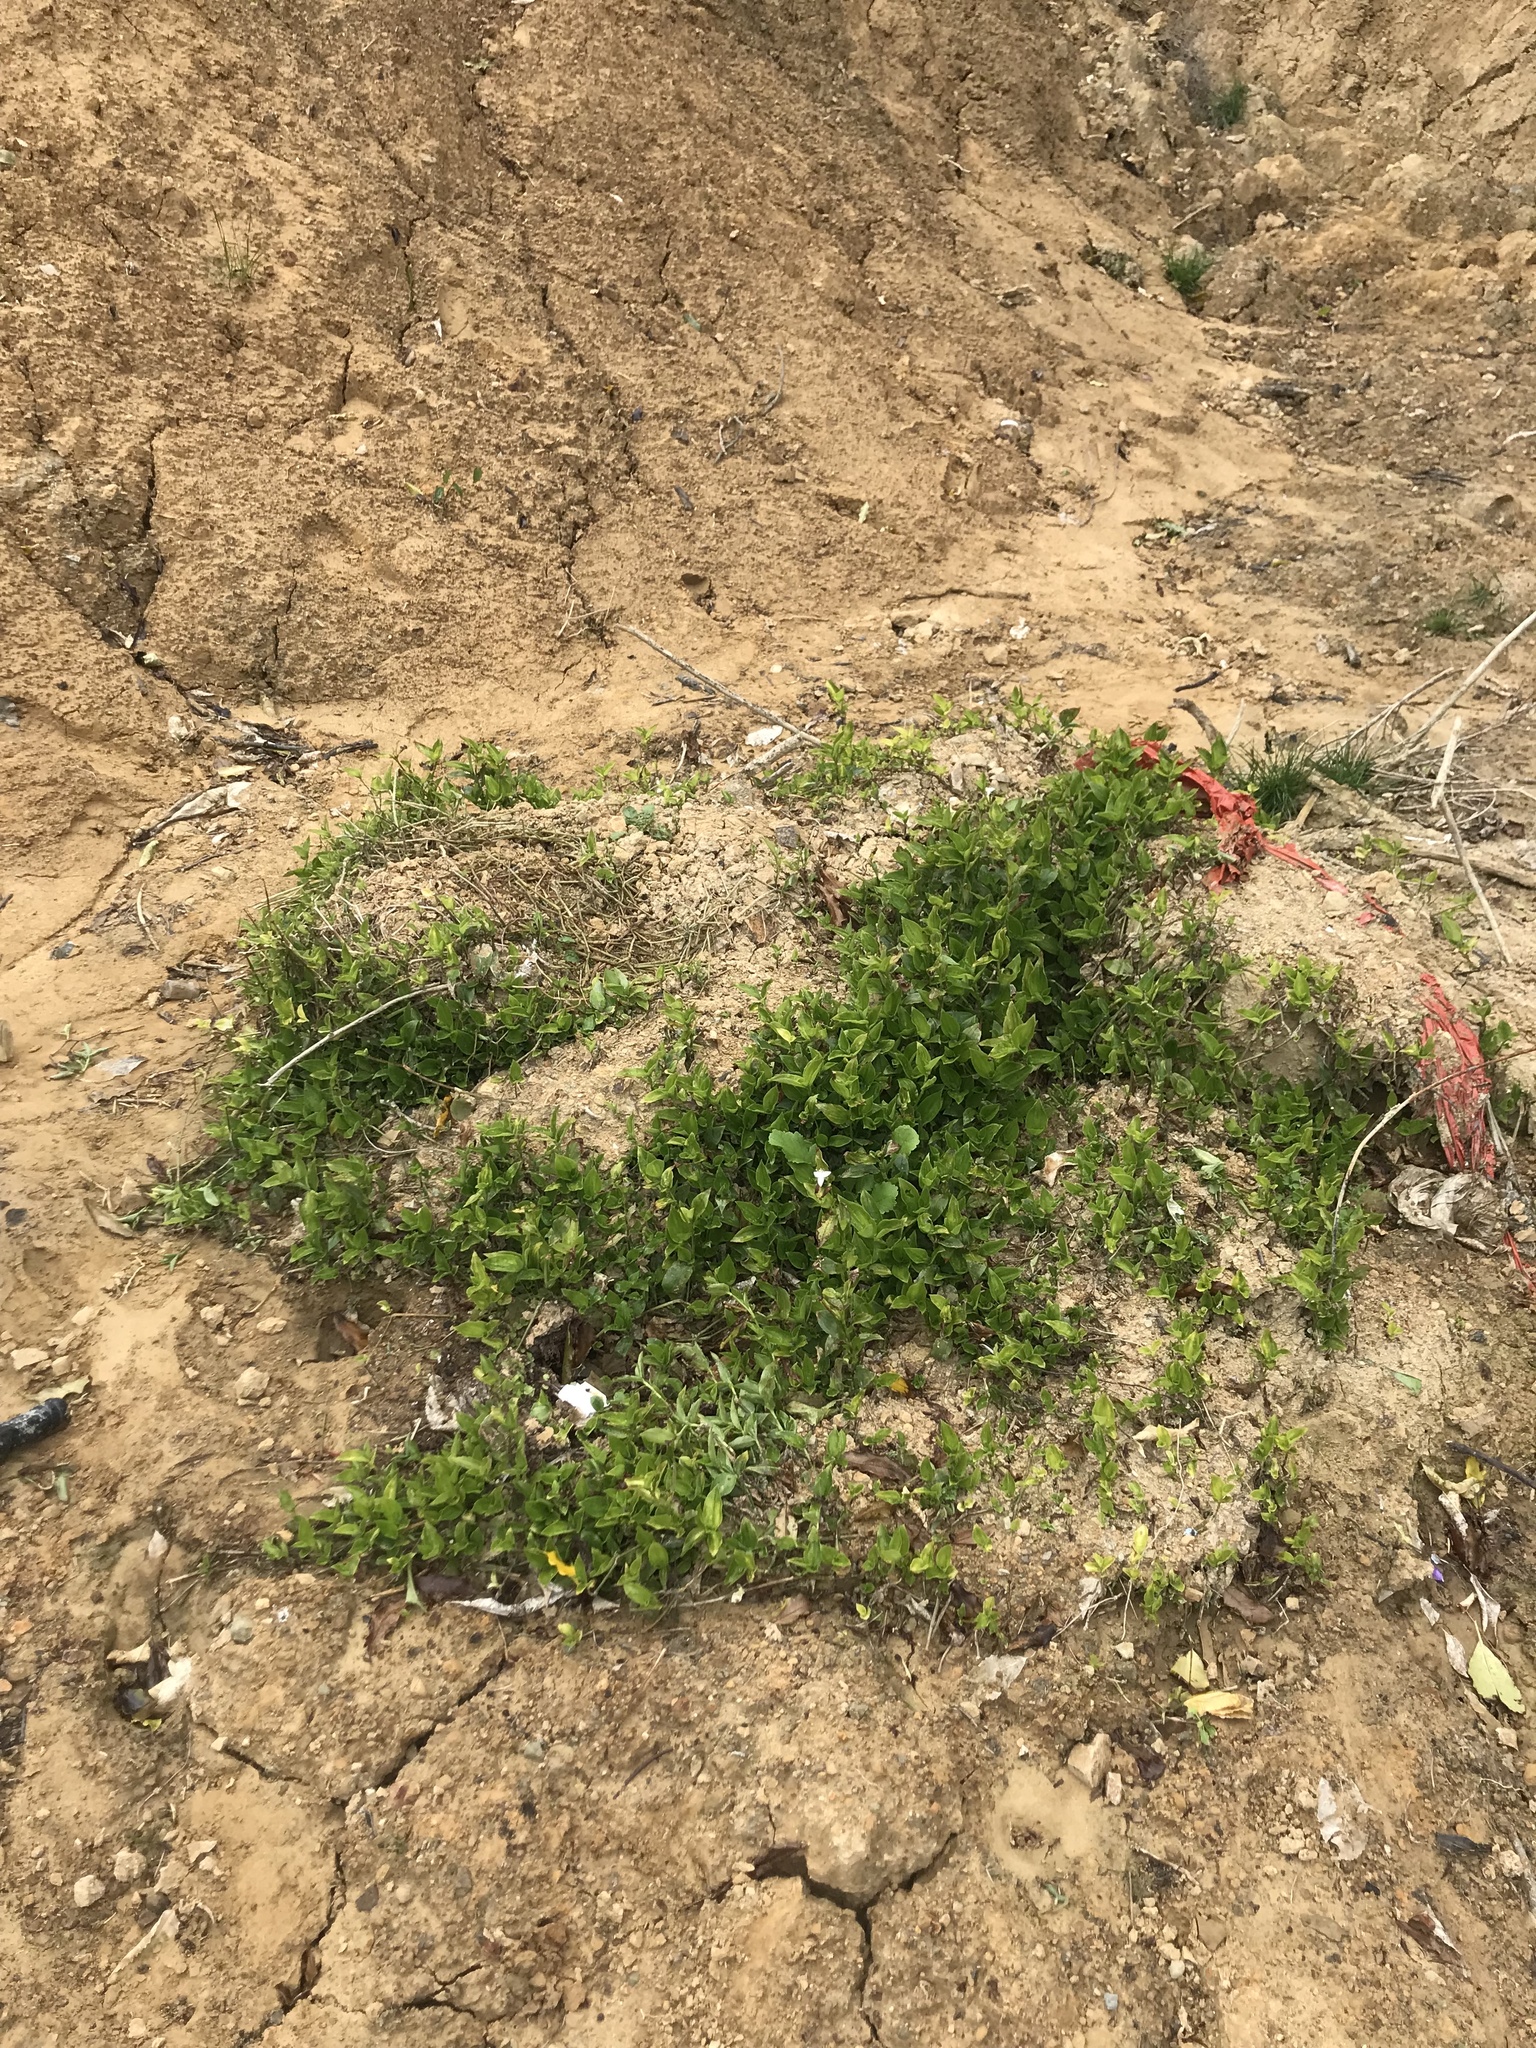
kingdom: Plantae
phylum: Tracheophyta
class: Liliopsida
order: Commelinales
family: Commelinaceae
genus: Tradescantia
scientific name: Tradescantia fluminensis
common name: Wandering-jew
